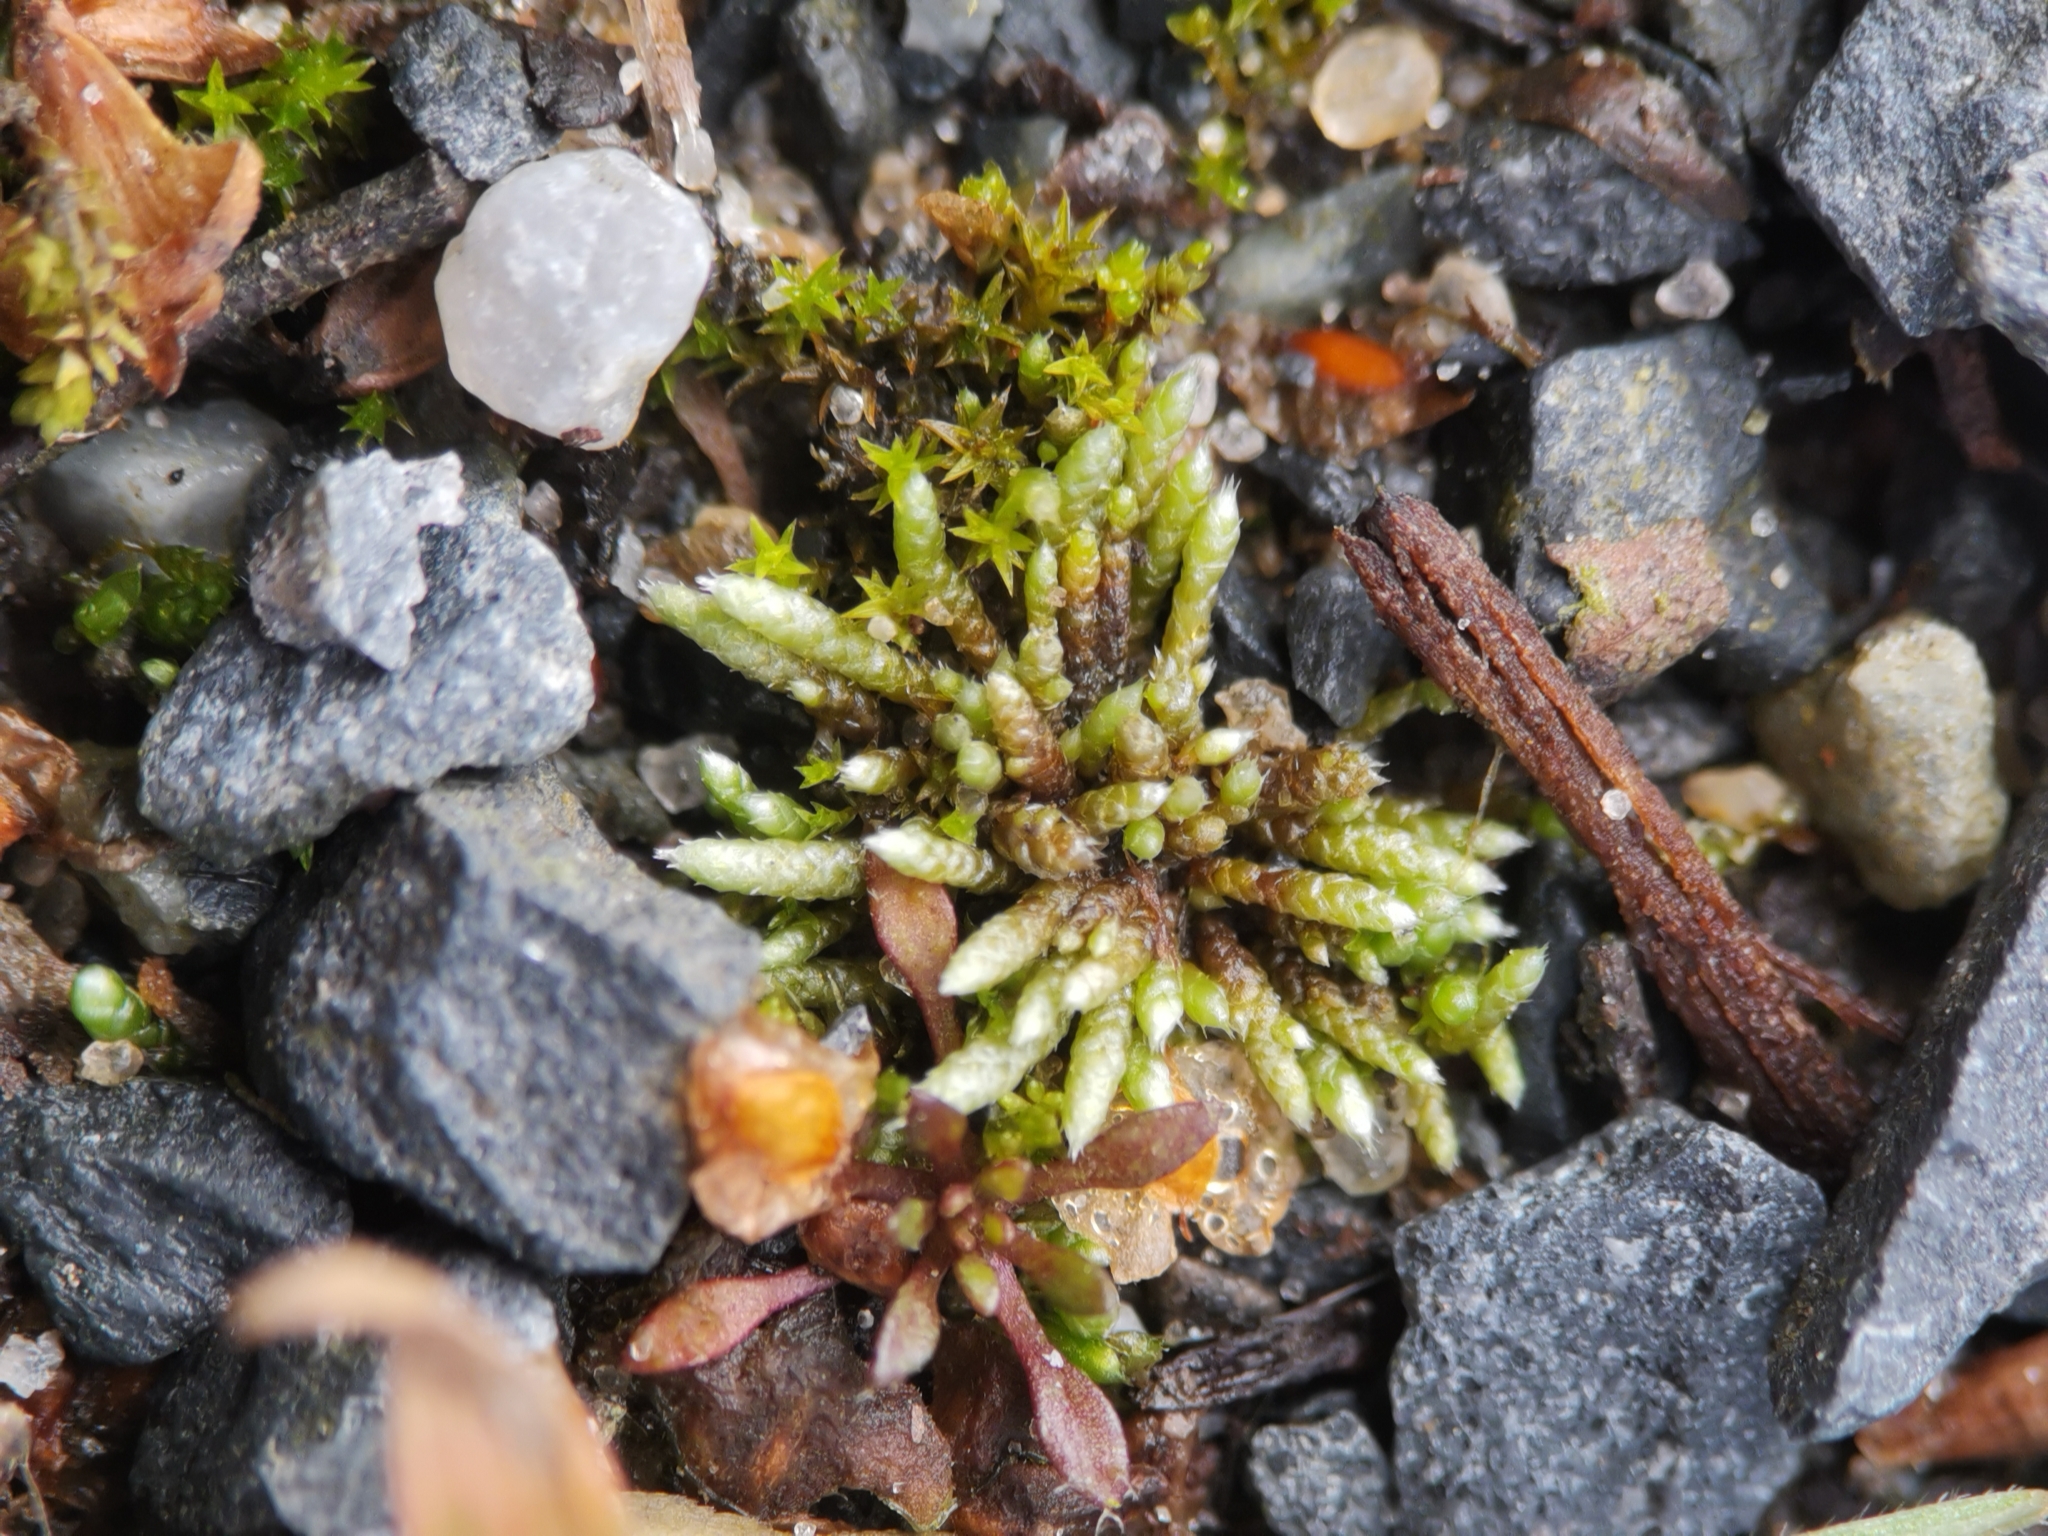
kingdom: Plantae
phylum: Bryophyta
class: Bryopsida
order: Bryales
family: Bryaceae
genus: Bryum
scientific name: Bryum argenteum
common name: Silver-moss
